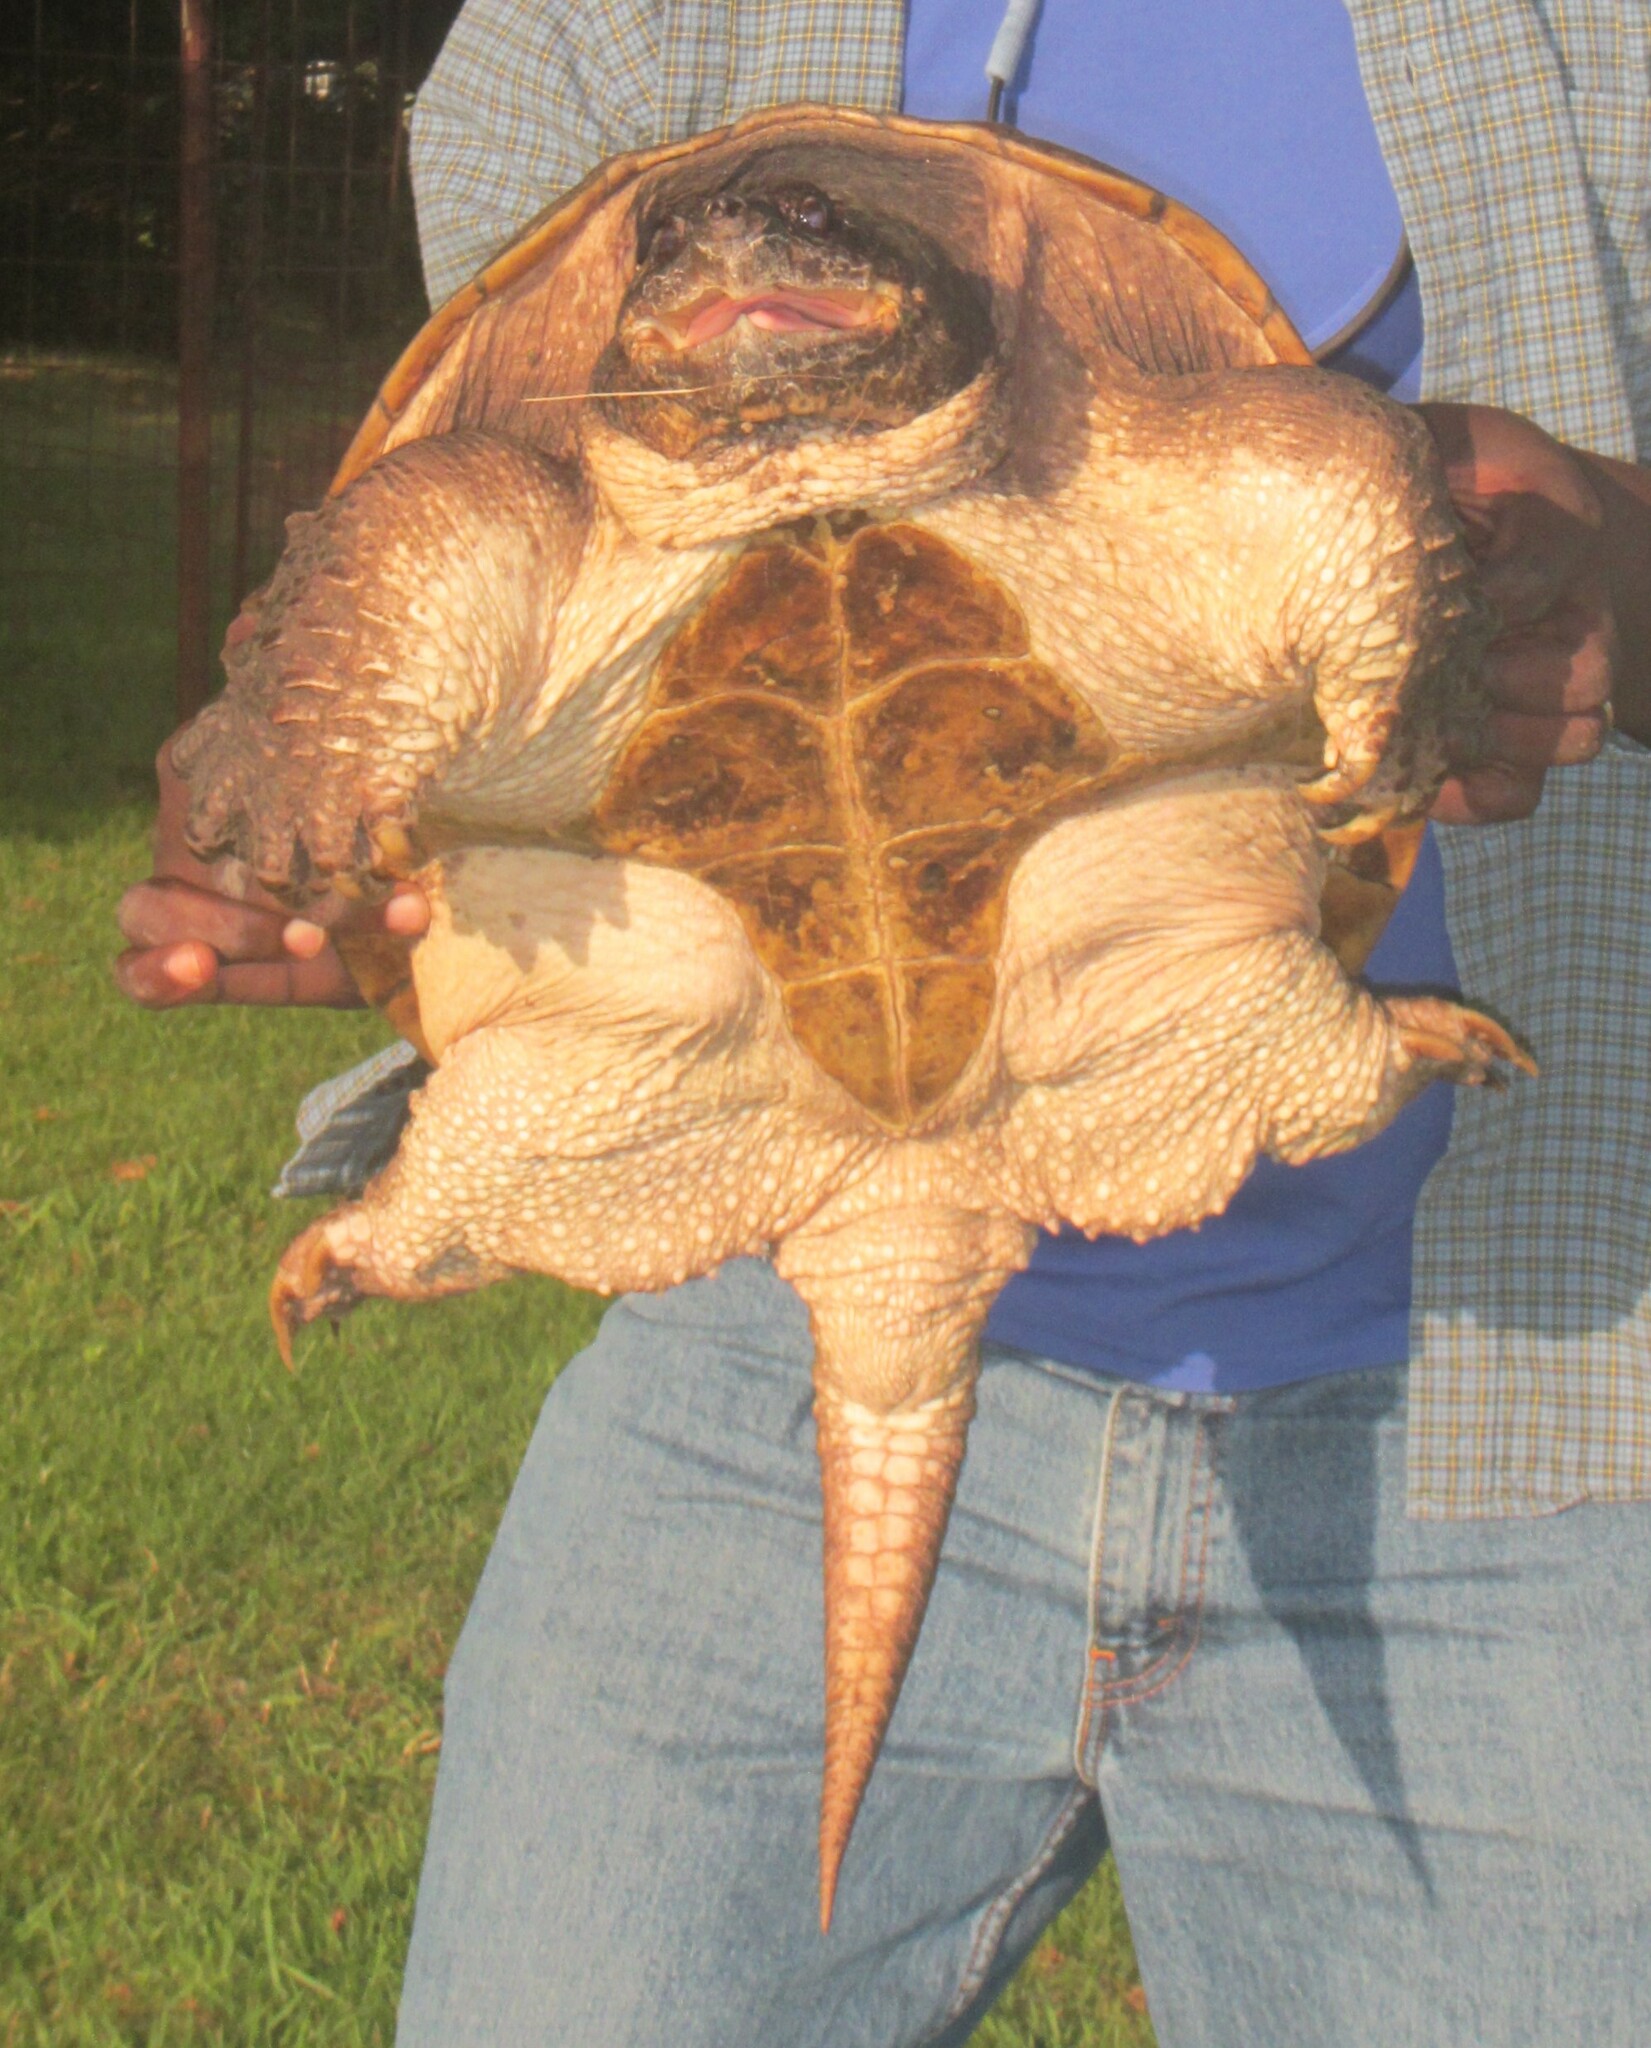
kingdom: Animalia
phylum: Chordata
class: Testudines
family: Chelydridae
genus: Chelydra
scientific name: Chelydra serpentina
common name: Common snapping turtle
